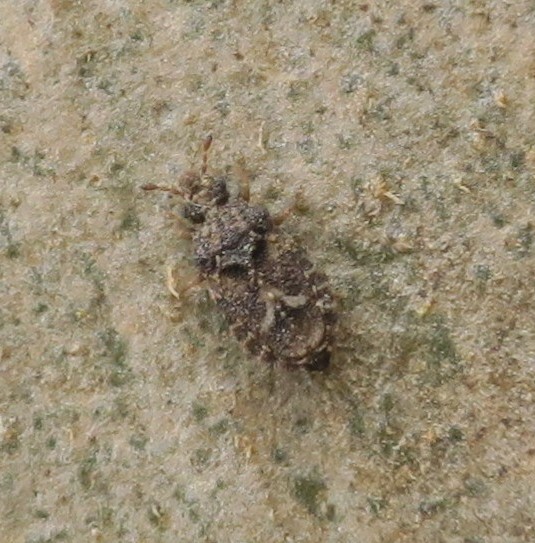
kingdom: Animalia
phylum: Arthropoda
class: Insecta
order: Hemiptera
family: Aradidae
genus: Calisius
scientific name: Calisius zealandicus
